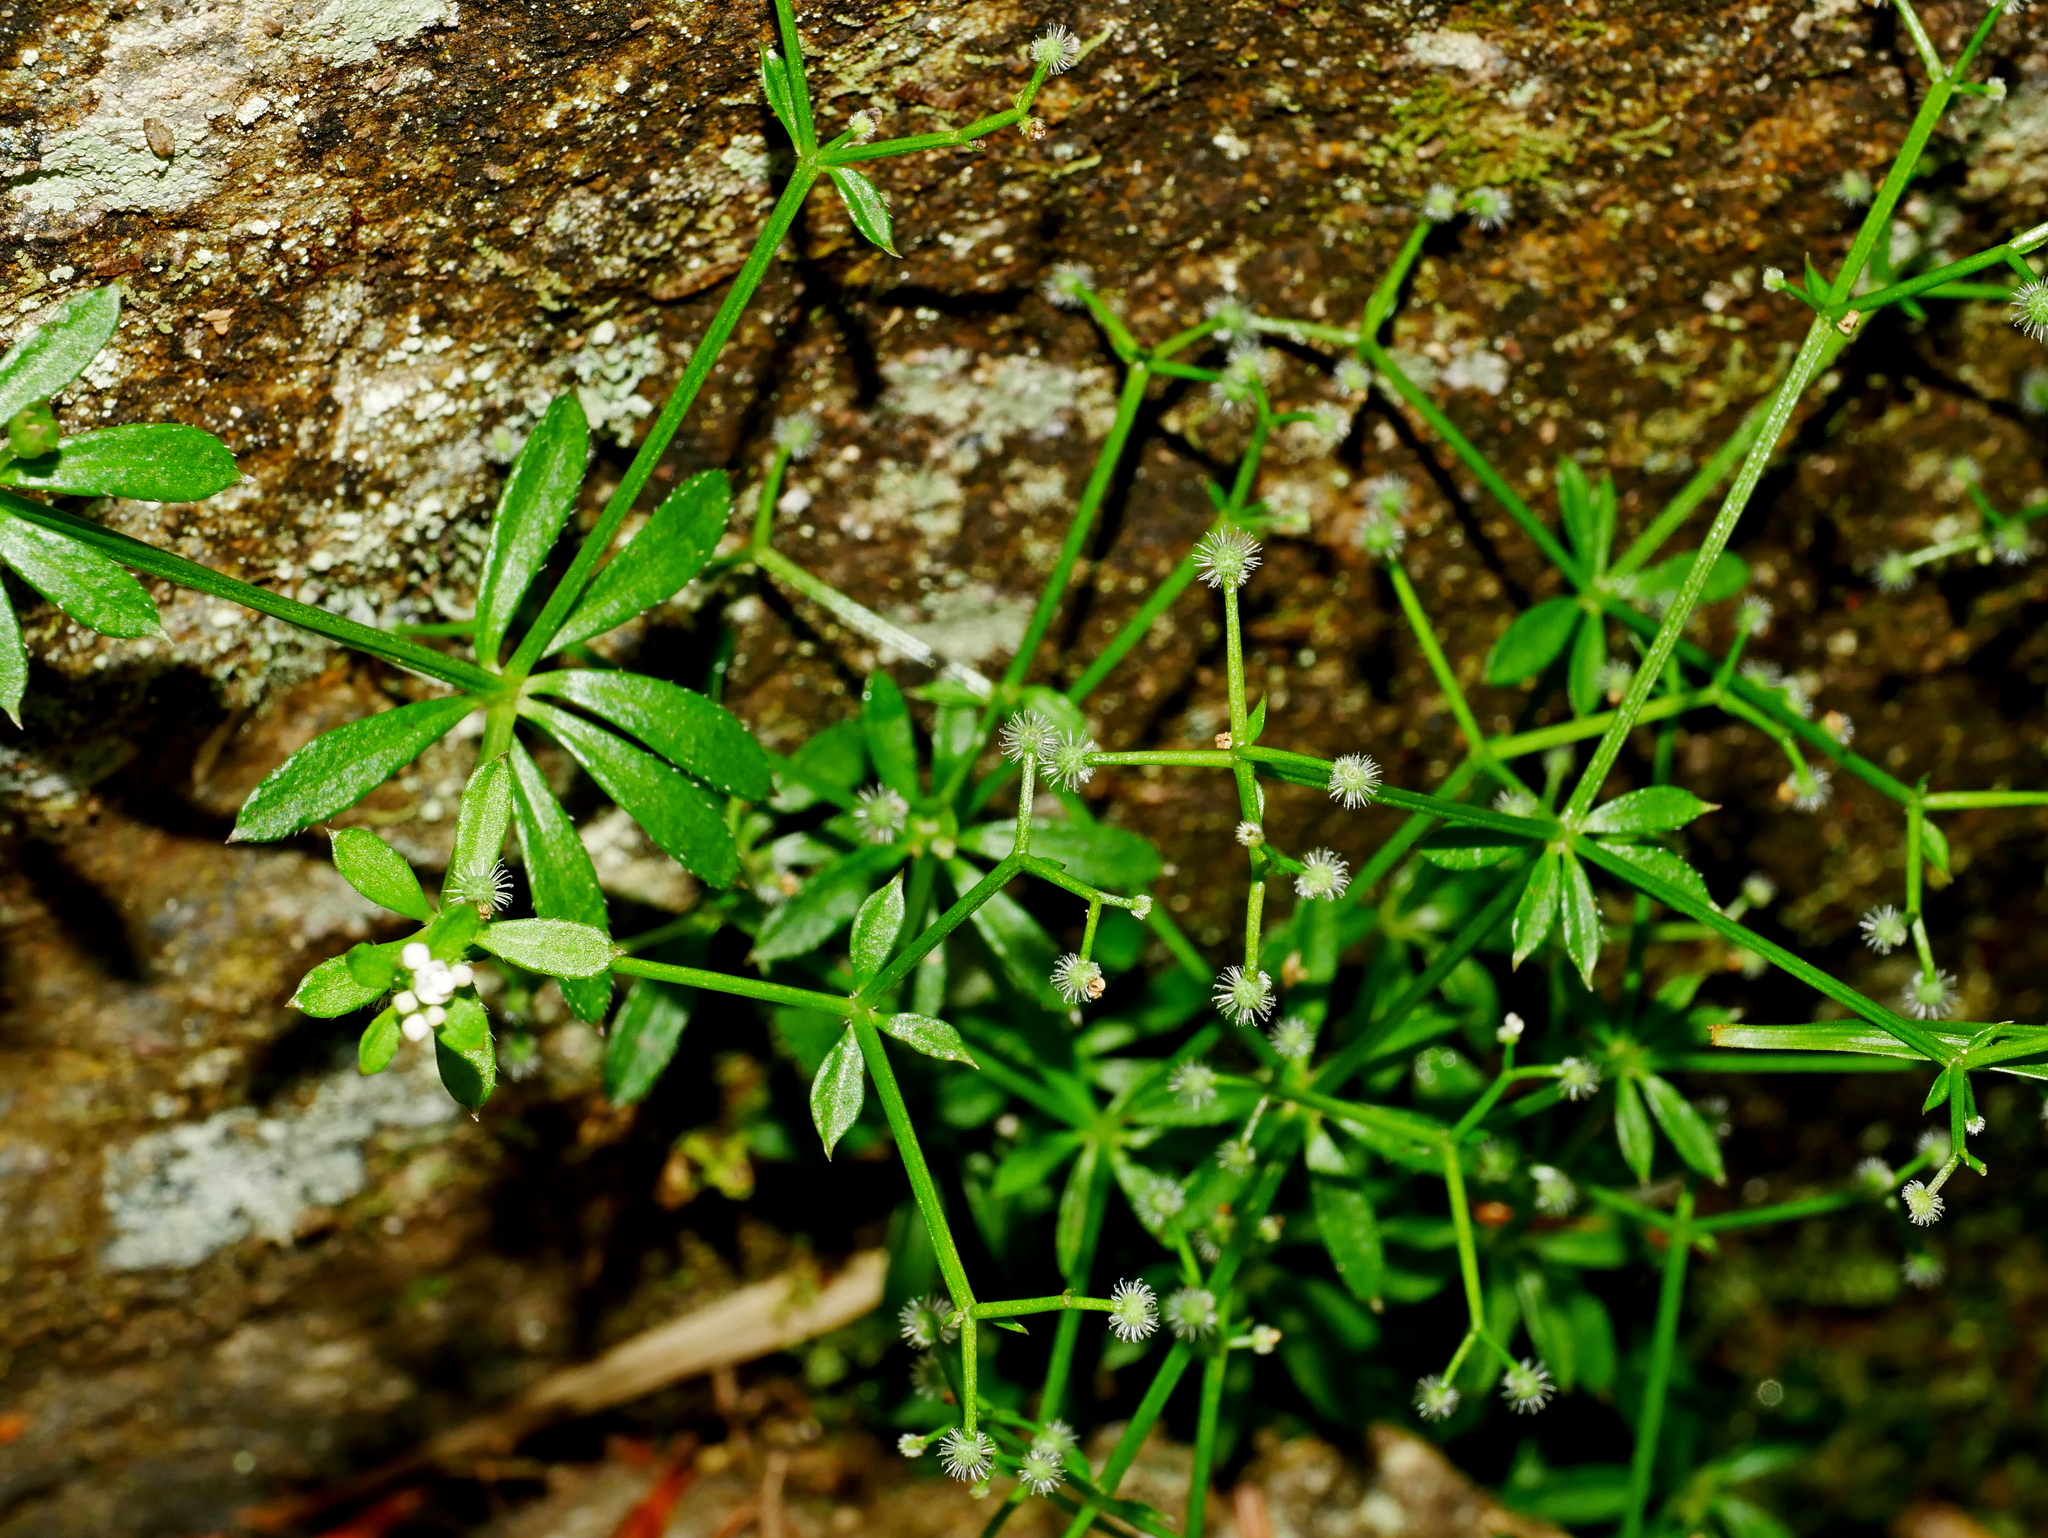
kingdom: Plantae
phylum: Tracheophyta
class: Magnoliopsida
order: Gentianales
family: Rubiaceae
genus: Galium
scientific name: Galium echinocarpum
